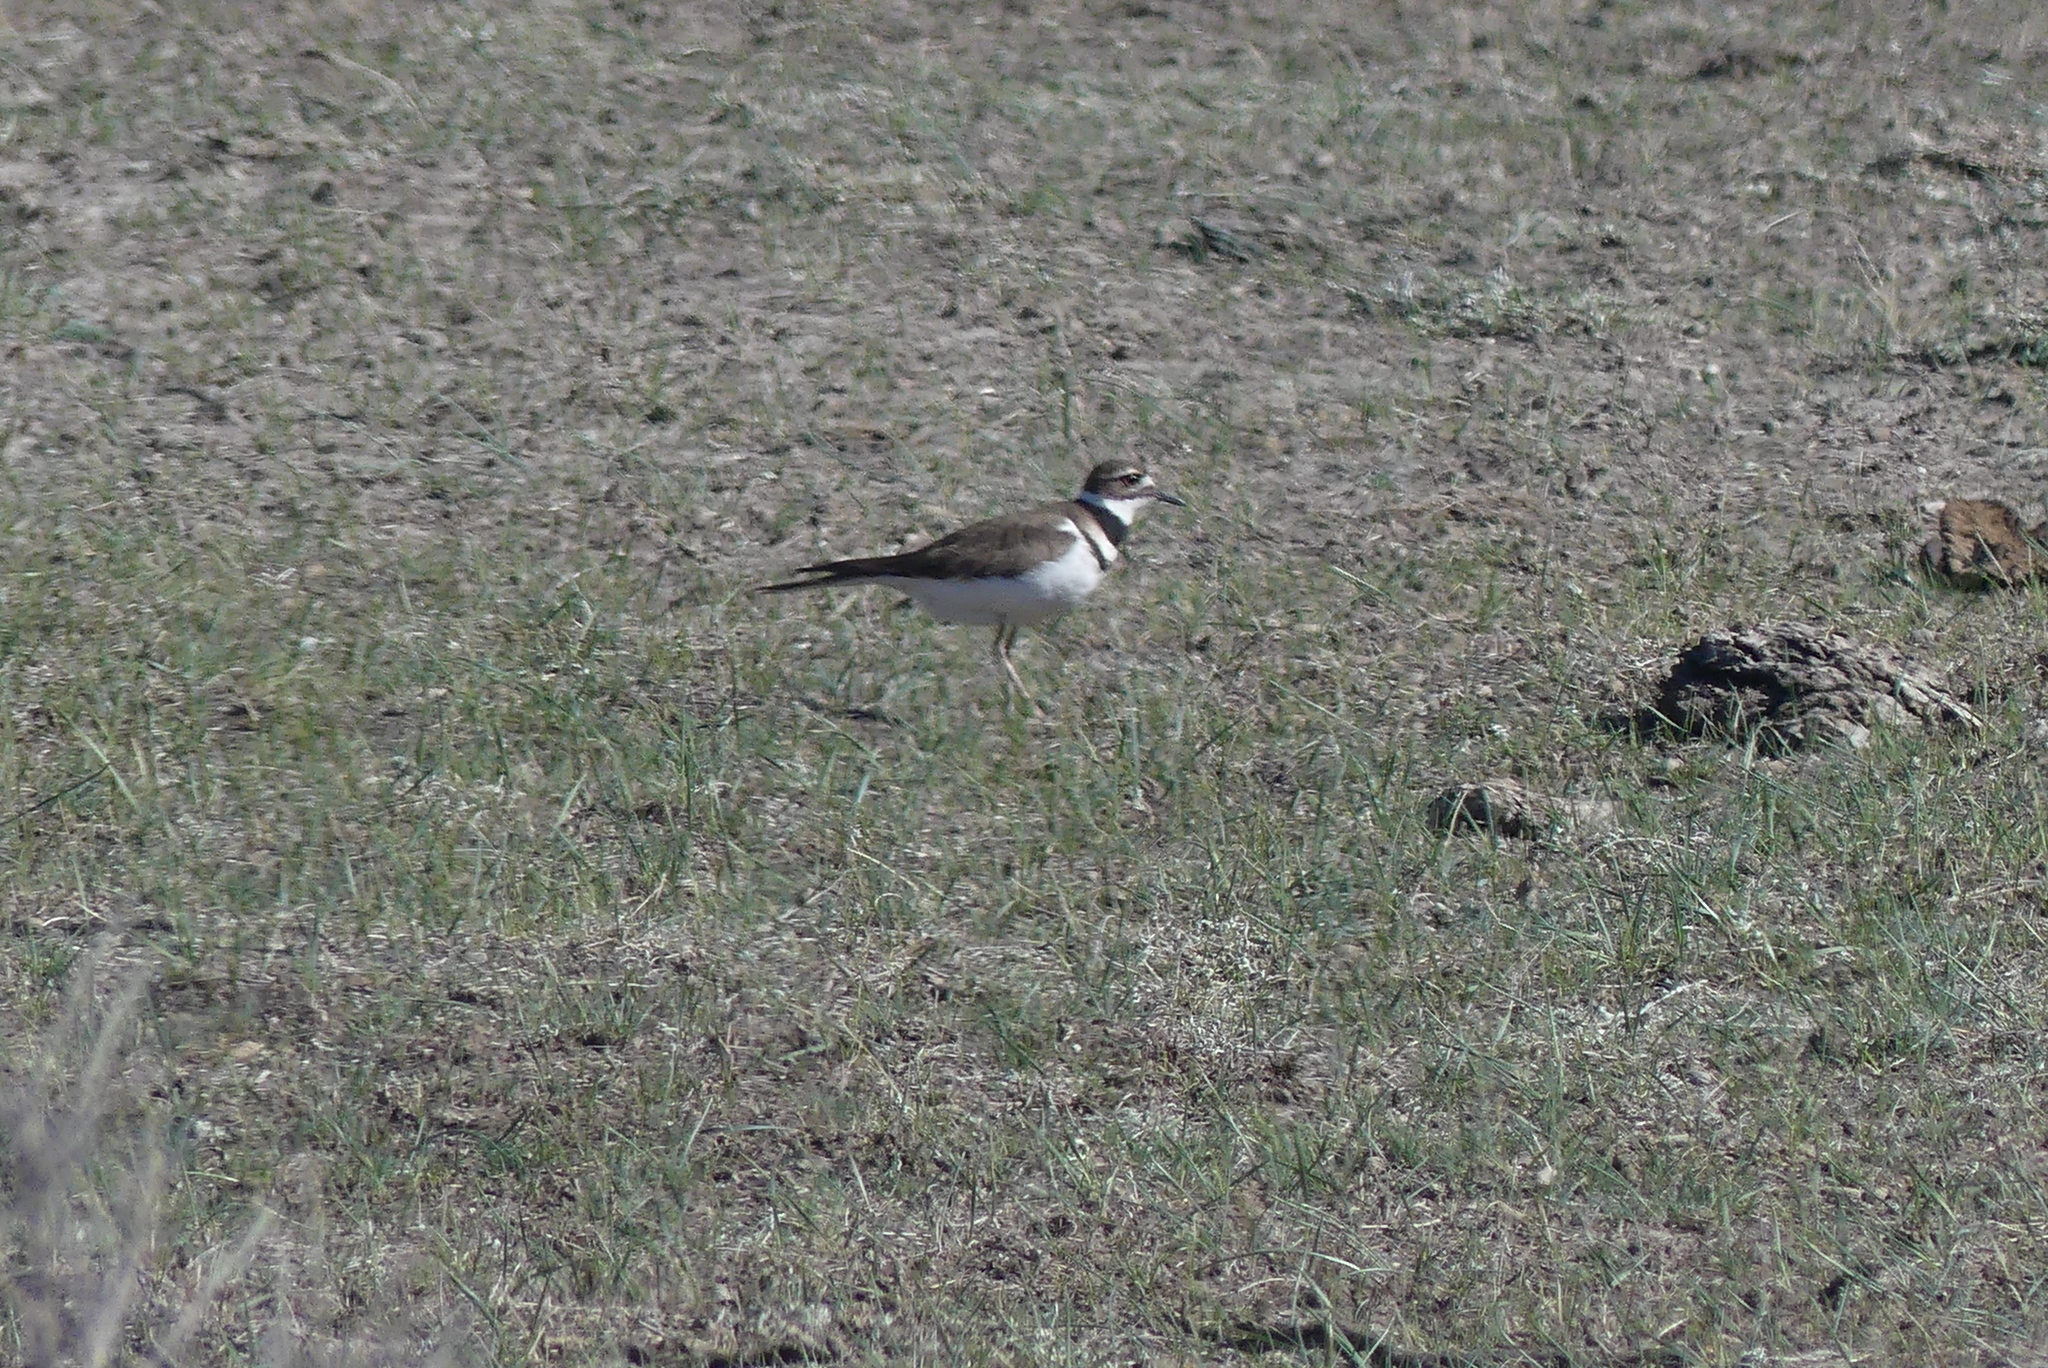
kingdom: Animalia
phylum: Chordata
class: Aves
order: Charadriiformes
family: Charadriidae
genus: Charadrius
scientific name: Charadrius vociferus
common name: Killdeer
